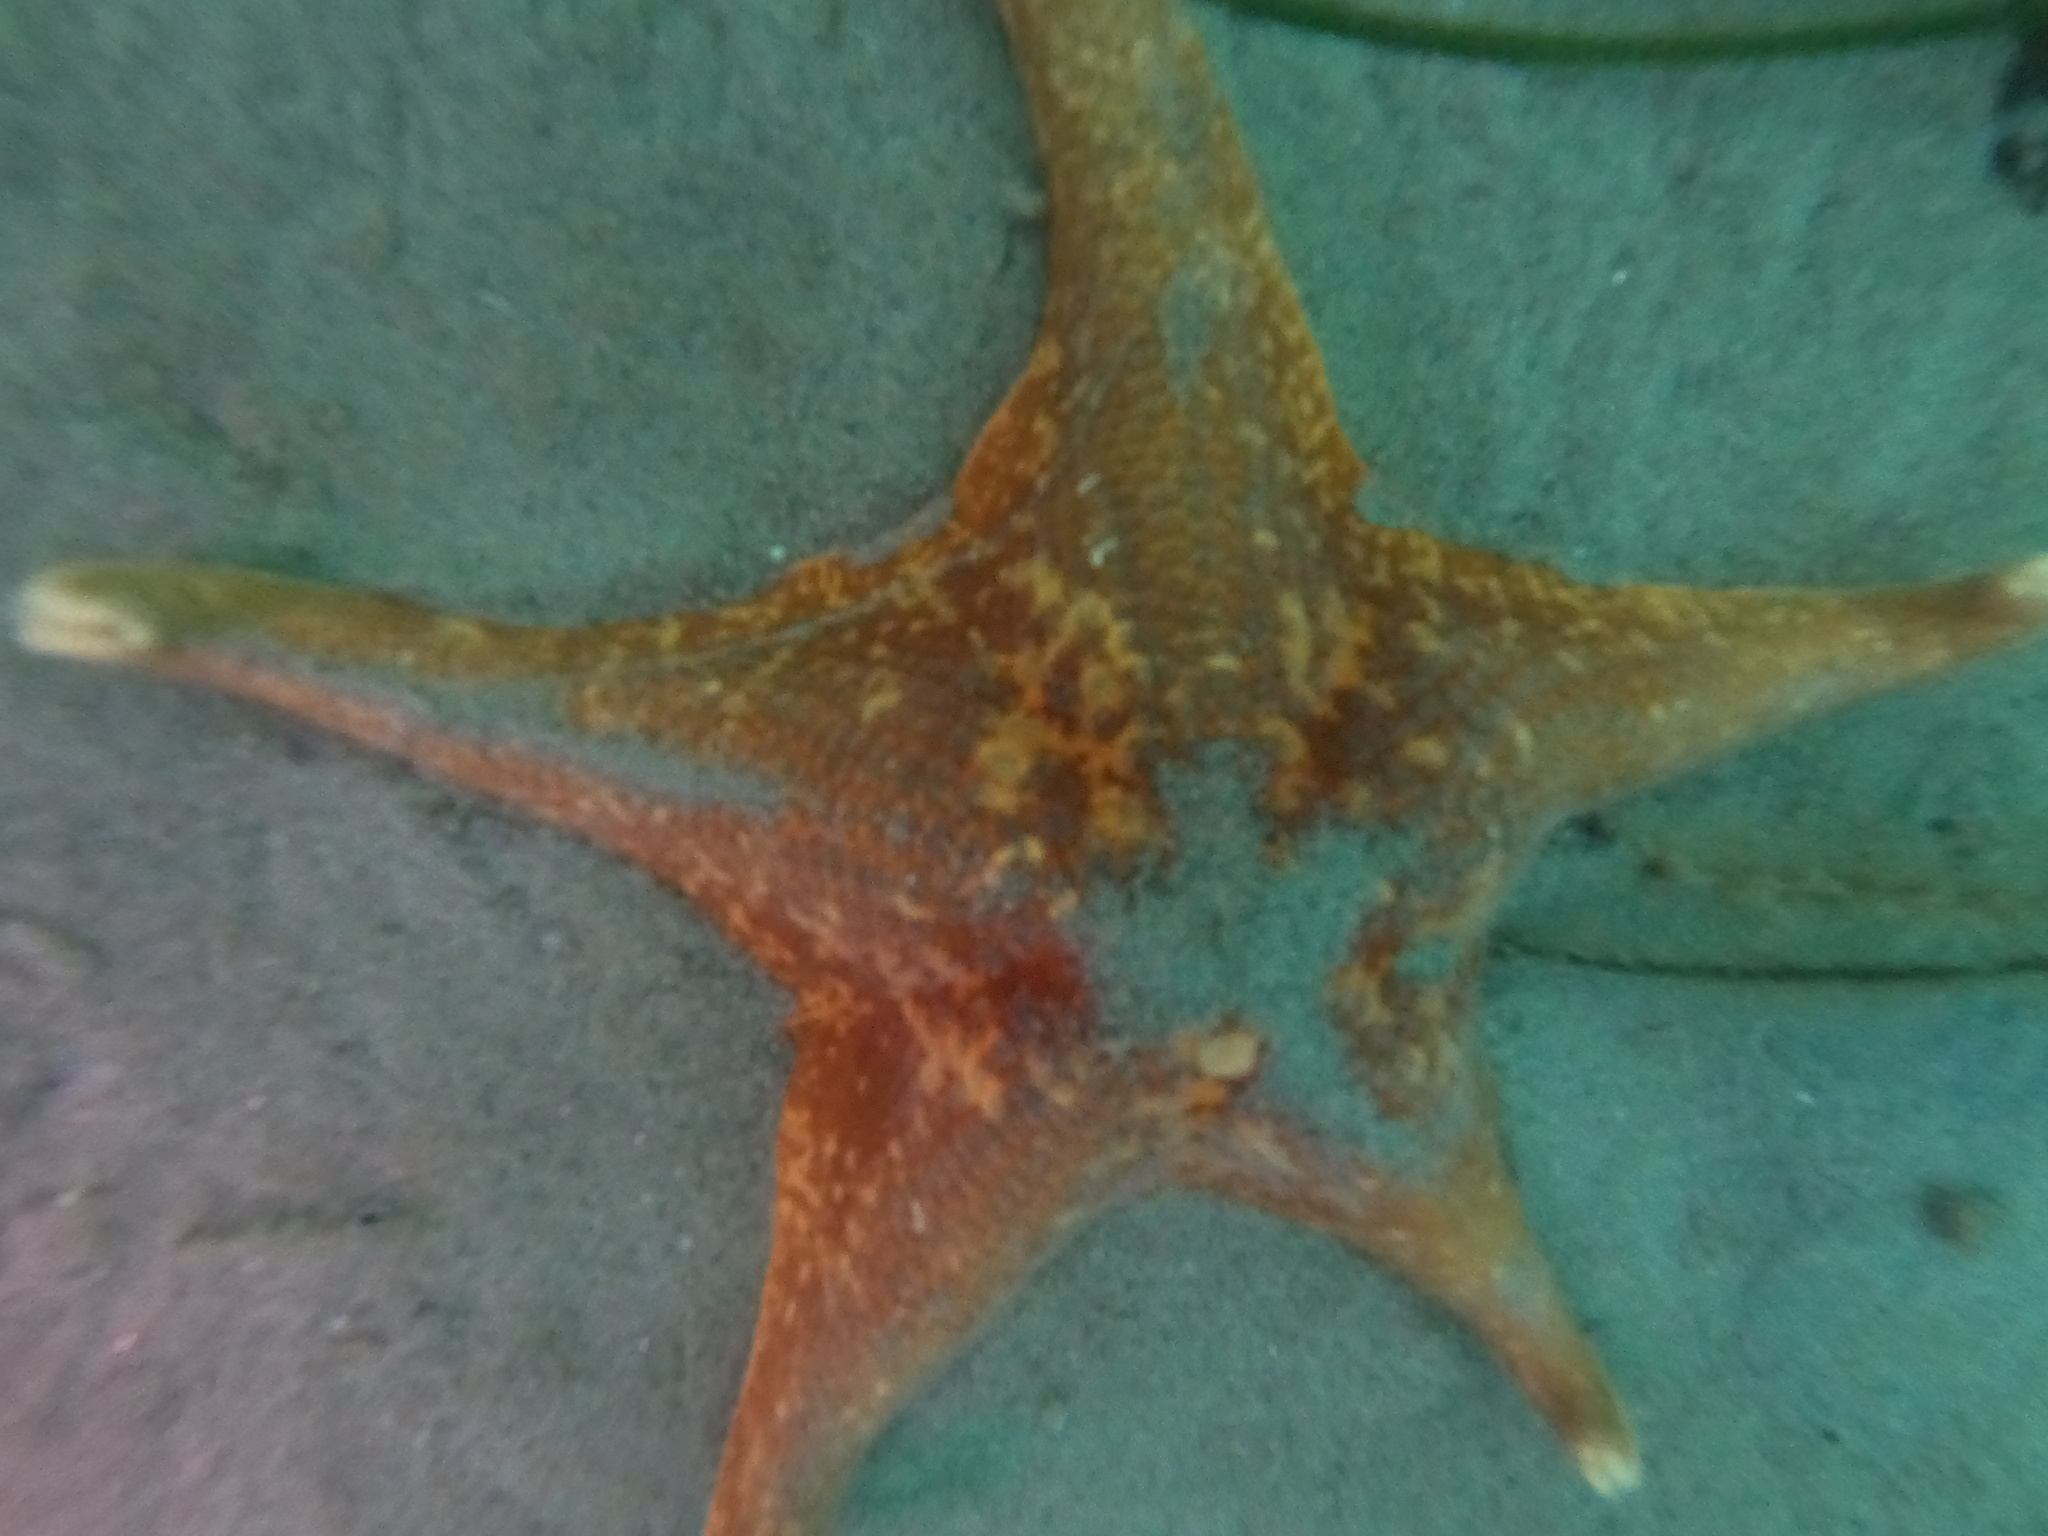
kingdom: Animalia
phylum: Echinodermata
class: Asteroidea
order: Valvatida
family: Asterinidae
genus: Patiria
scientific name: Patiria miniata
